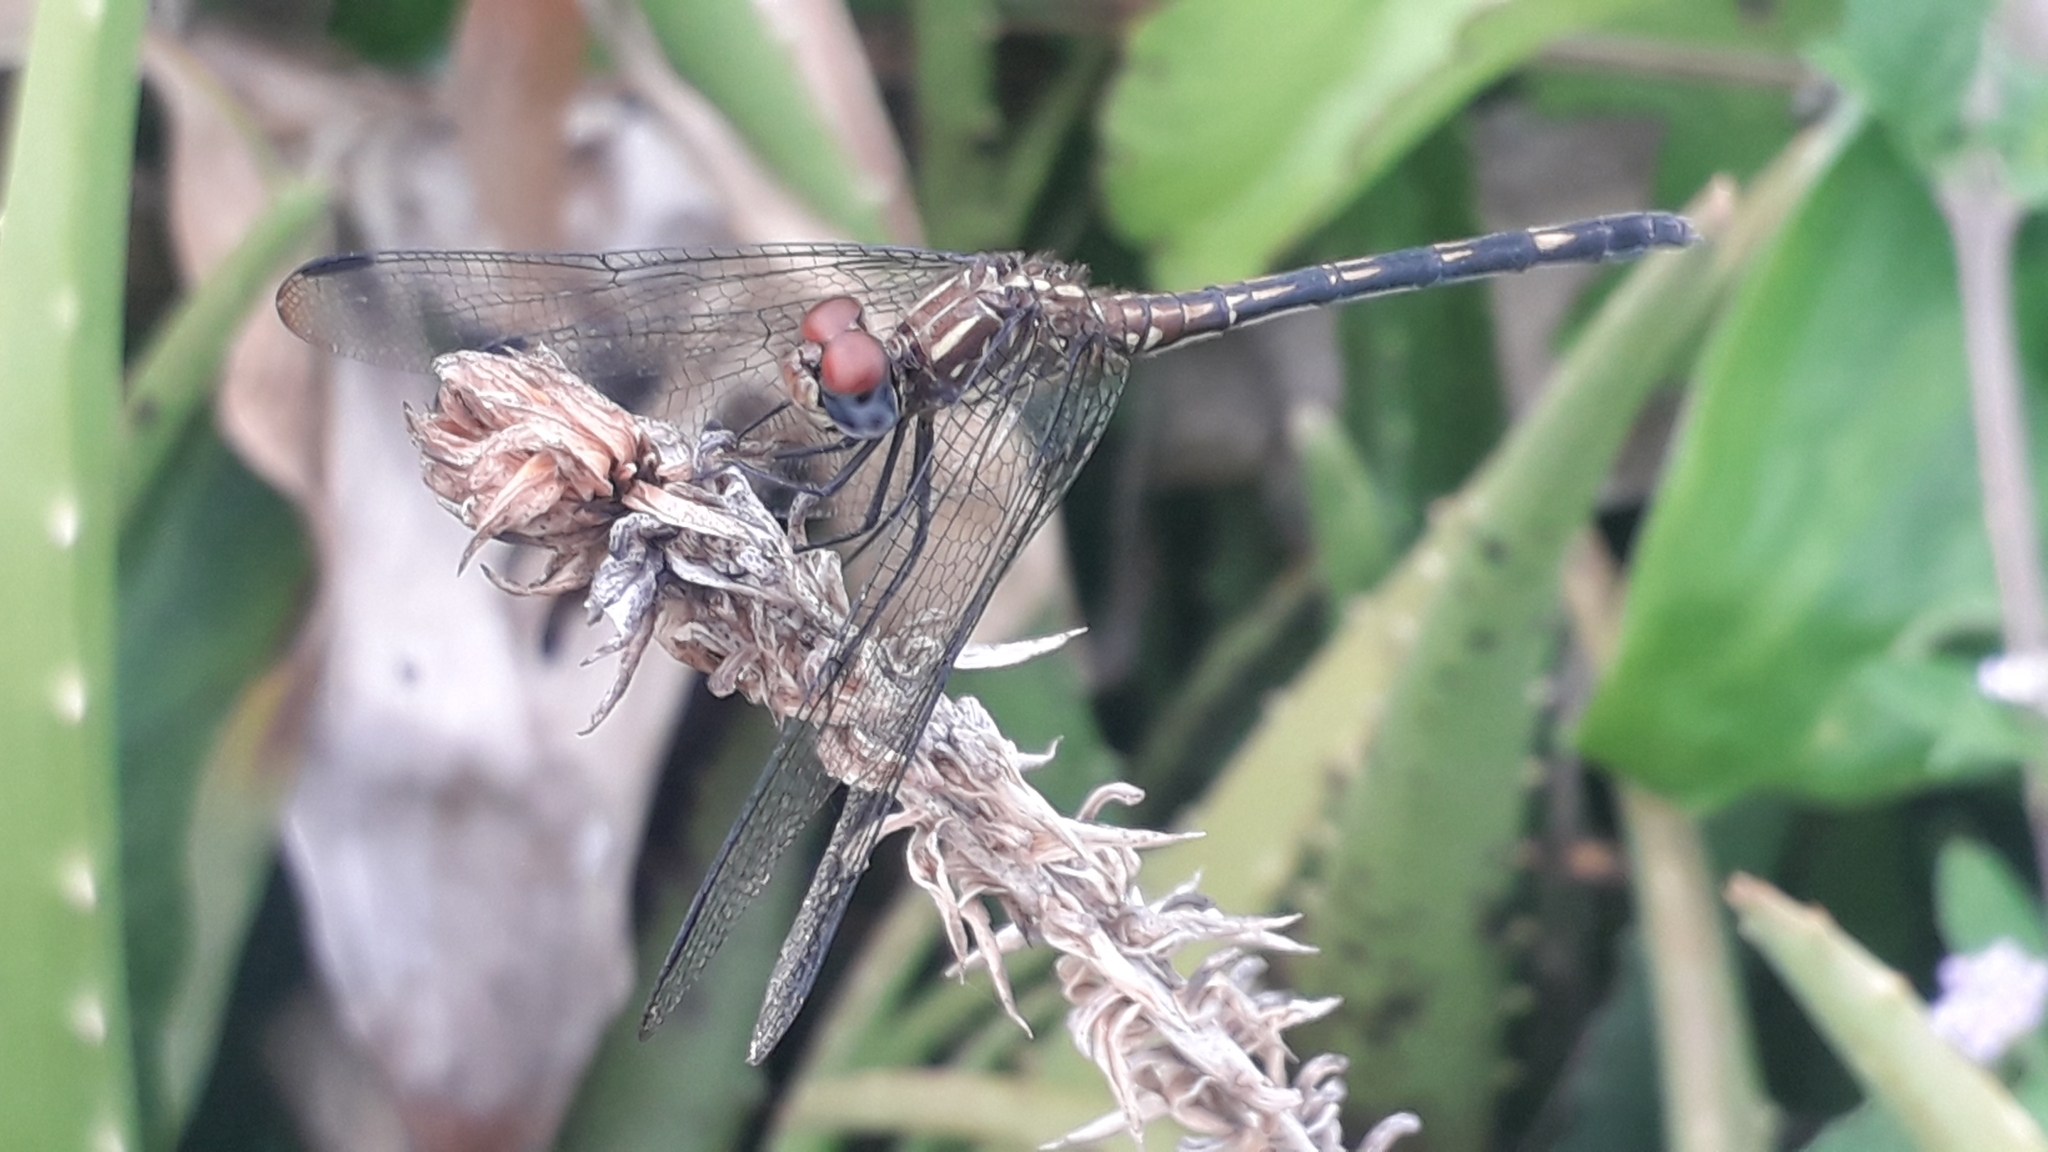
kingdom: Animalia
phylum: Arthropoda
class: Insecta
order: Odonata
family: Libellulidae
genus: Dythemis
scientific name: Dythemis sterilis
